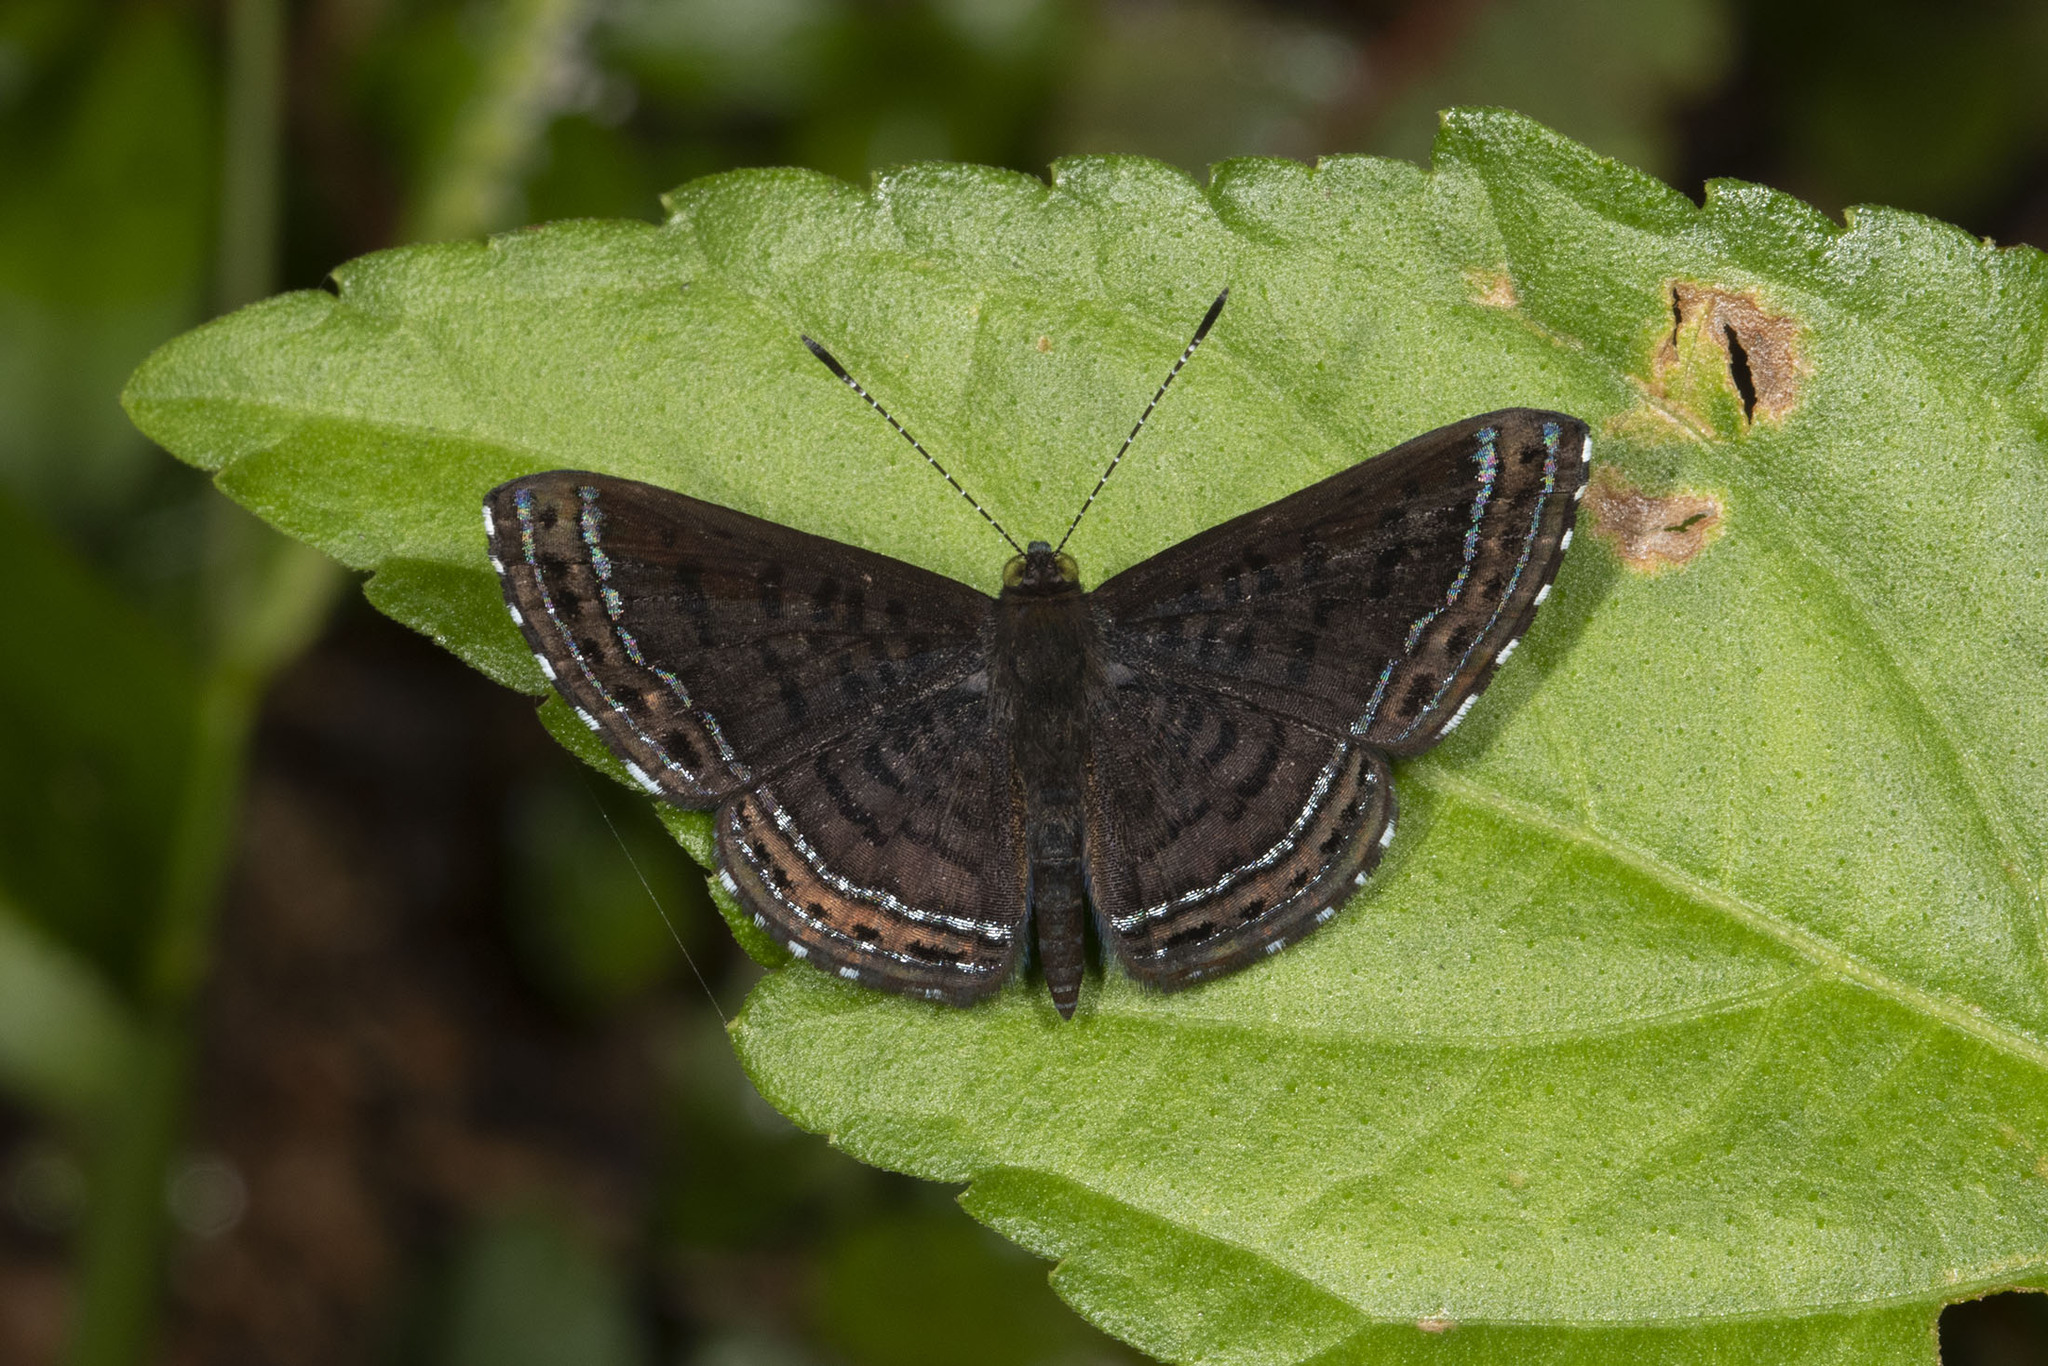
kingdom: Animalia
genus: Charis
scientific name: Charis anius
